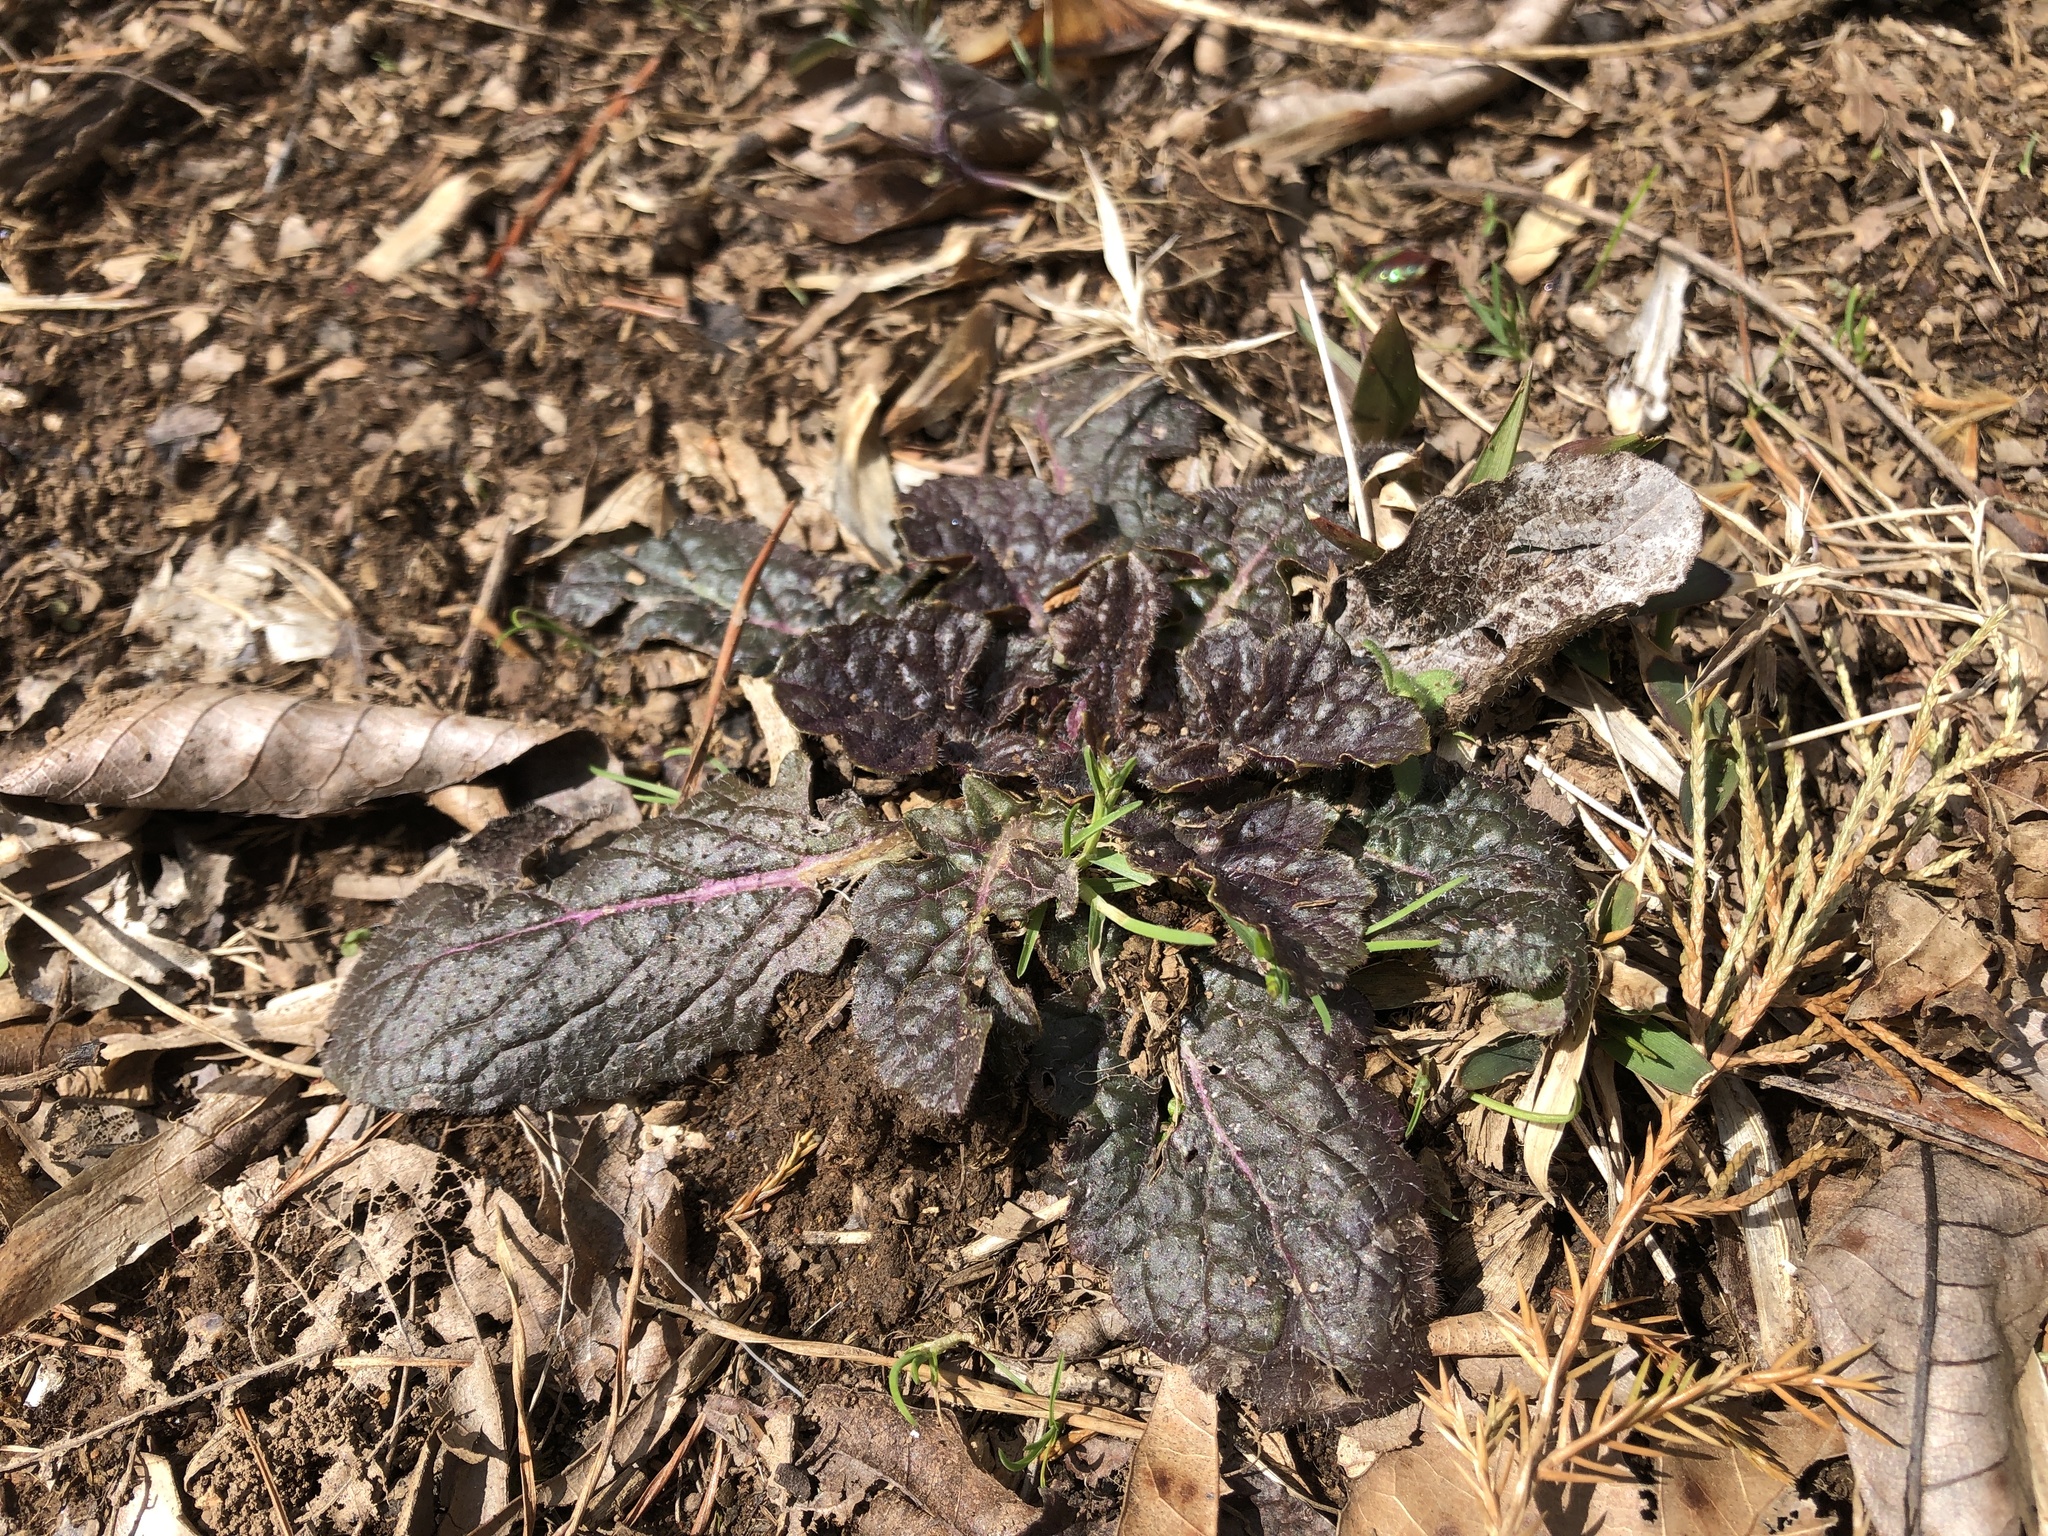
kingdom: Plantae
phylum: Tracheophyta
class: Magnoliopsida
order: Lamiales
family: Lamiaceae
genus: Salvia
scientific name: Salvia lyrata
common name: Cancerweed
